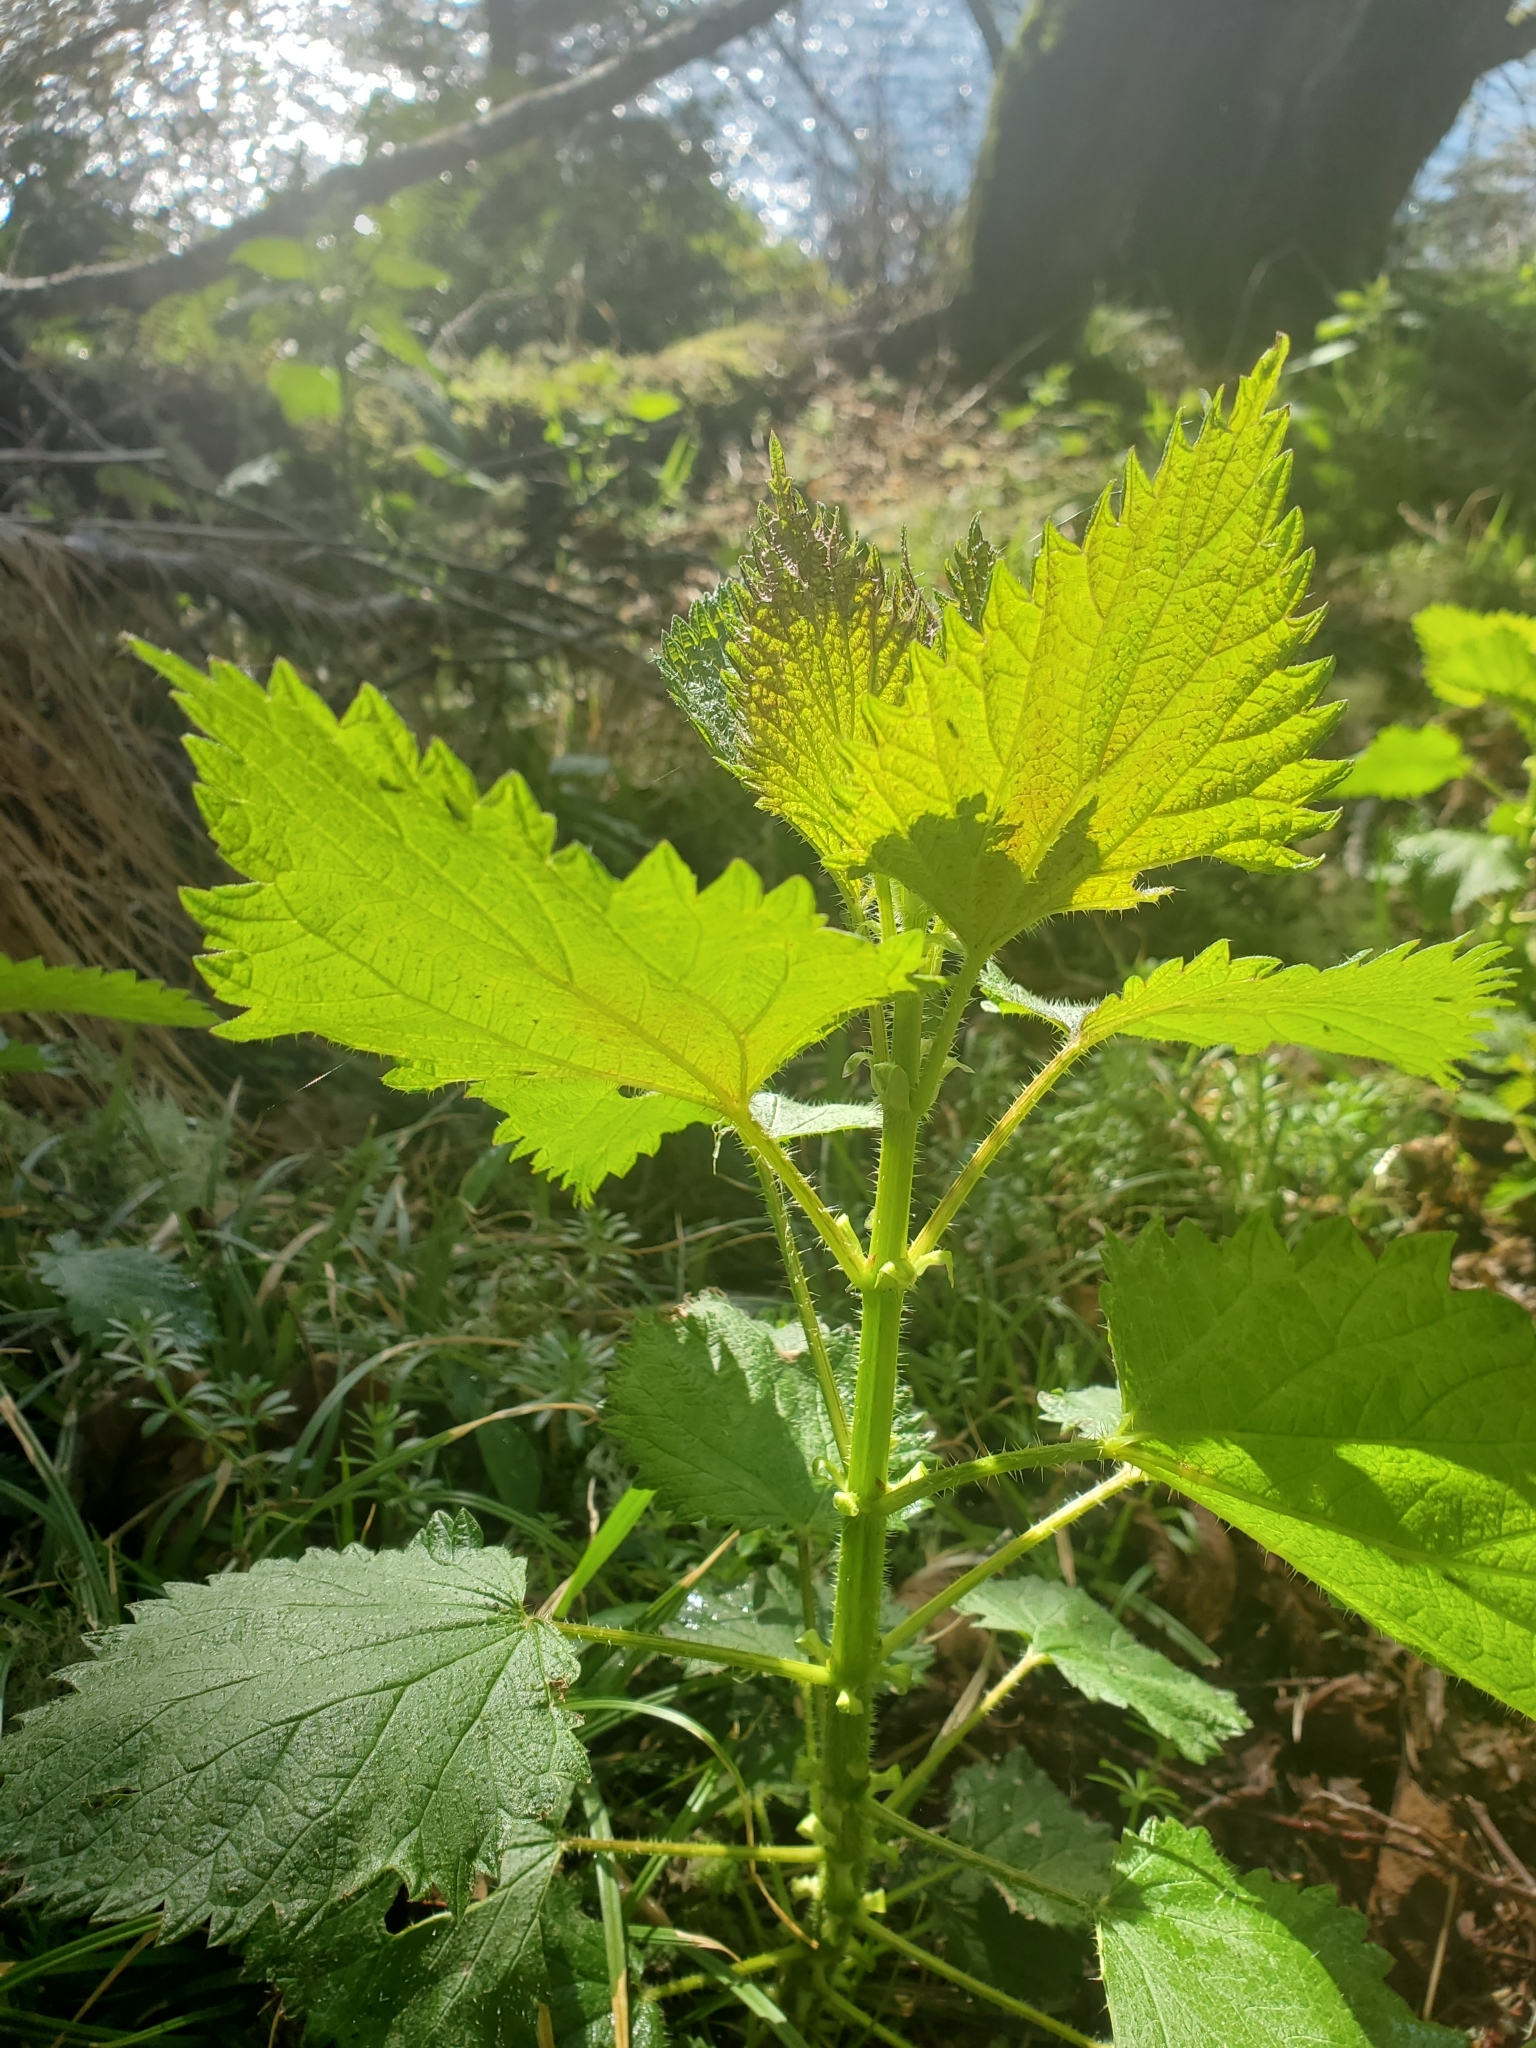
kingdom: Plantae
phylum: Tracheophyta
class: Magnoliopsida
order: Rosales
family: Urticaceae
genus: Urtica
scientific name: Urtica dioica
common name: Common nettle
